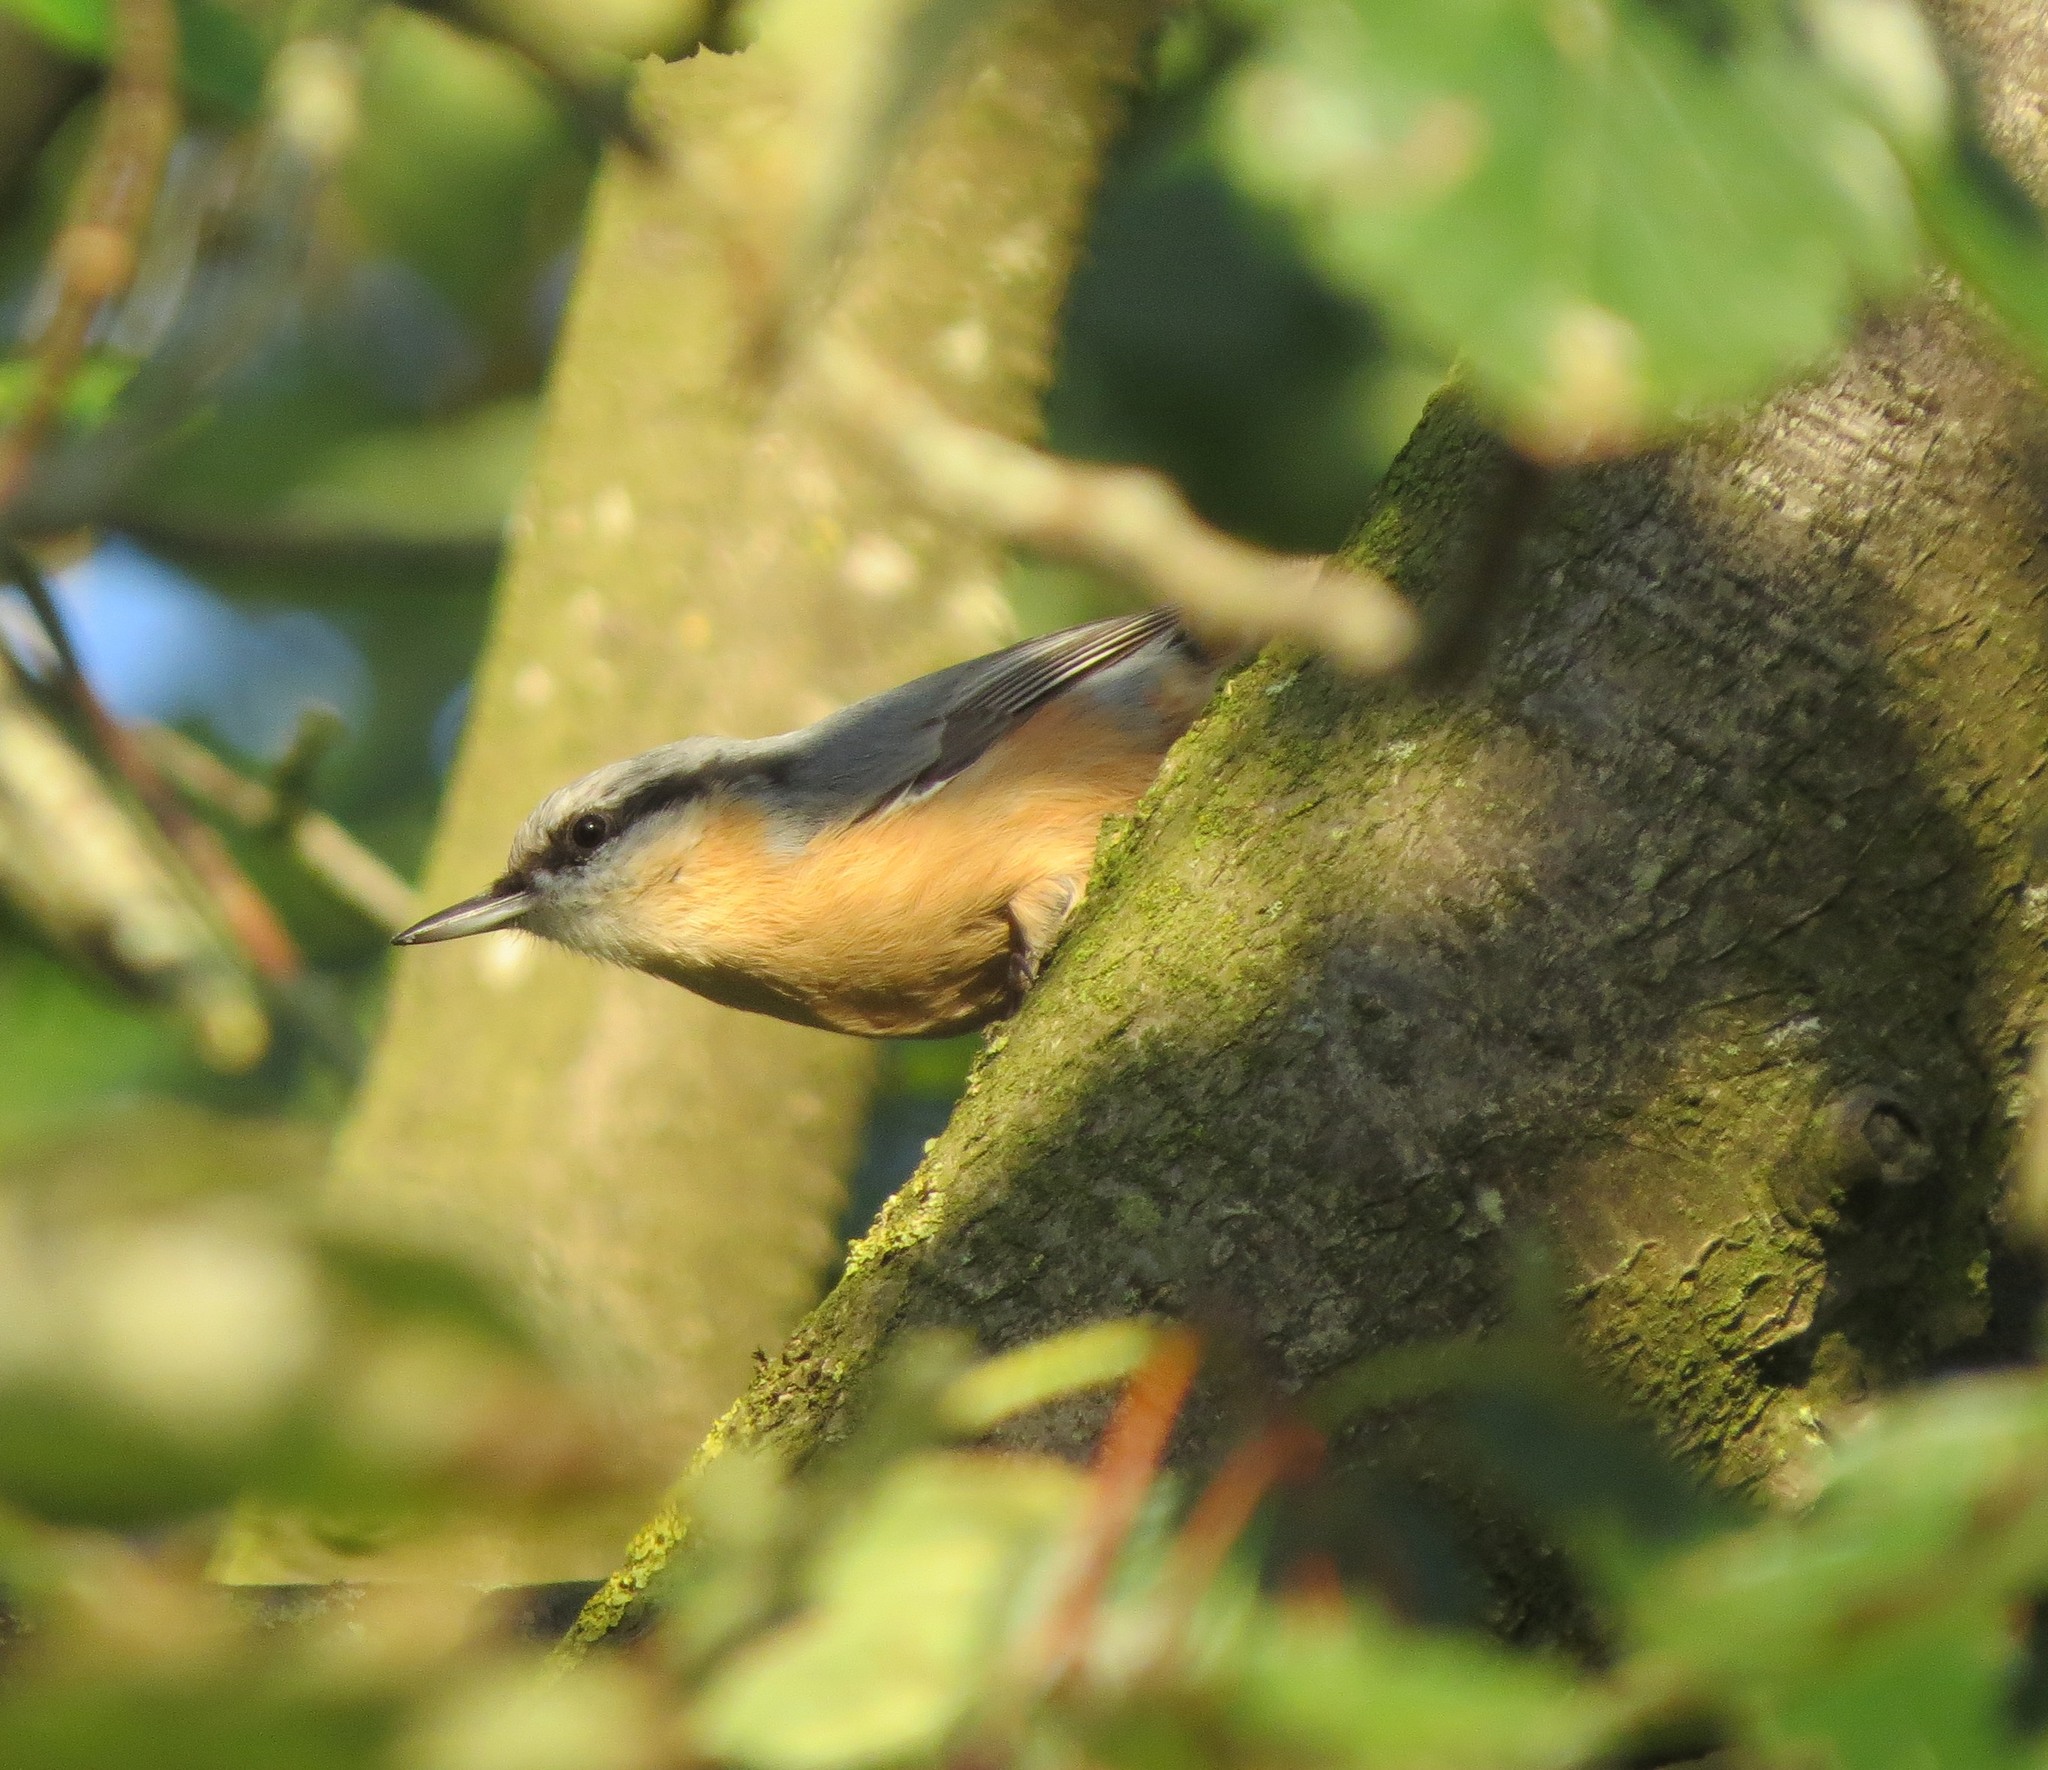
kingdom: Animalia
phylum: Chordata
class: Aves
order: Passeriformes
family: Sittidae
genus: Sitta
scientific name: Sitta europaea
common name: Eurasian nuthatch
